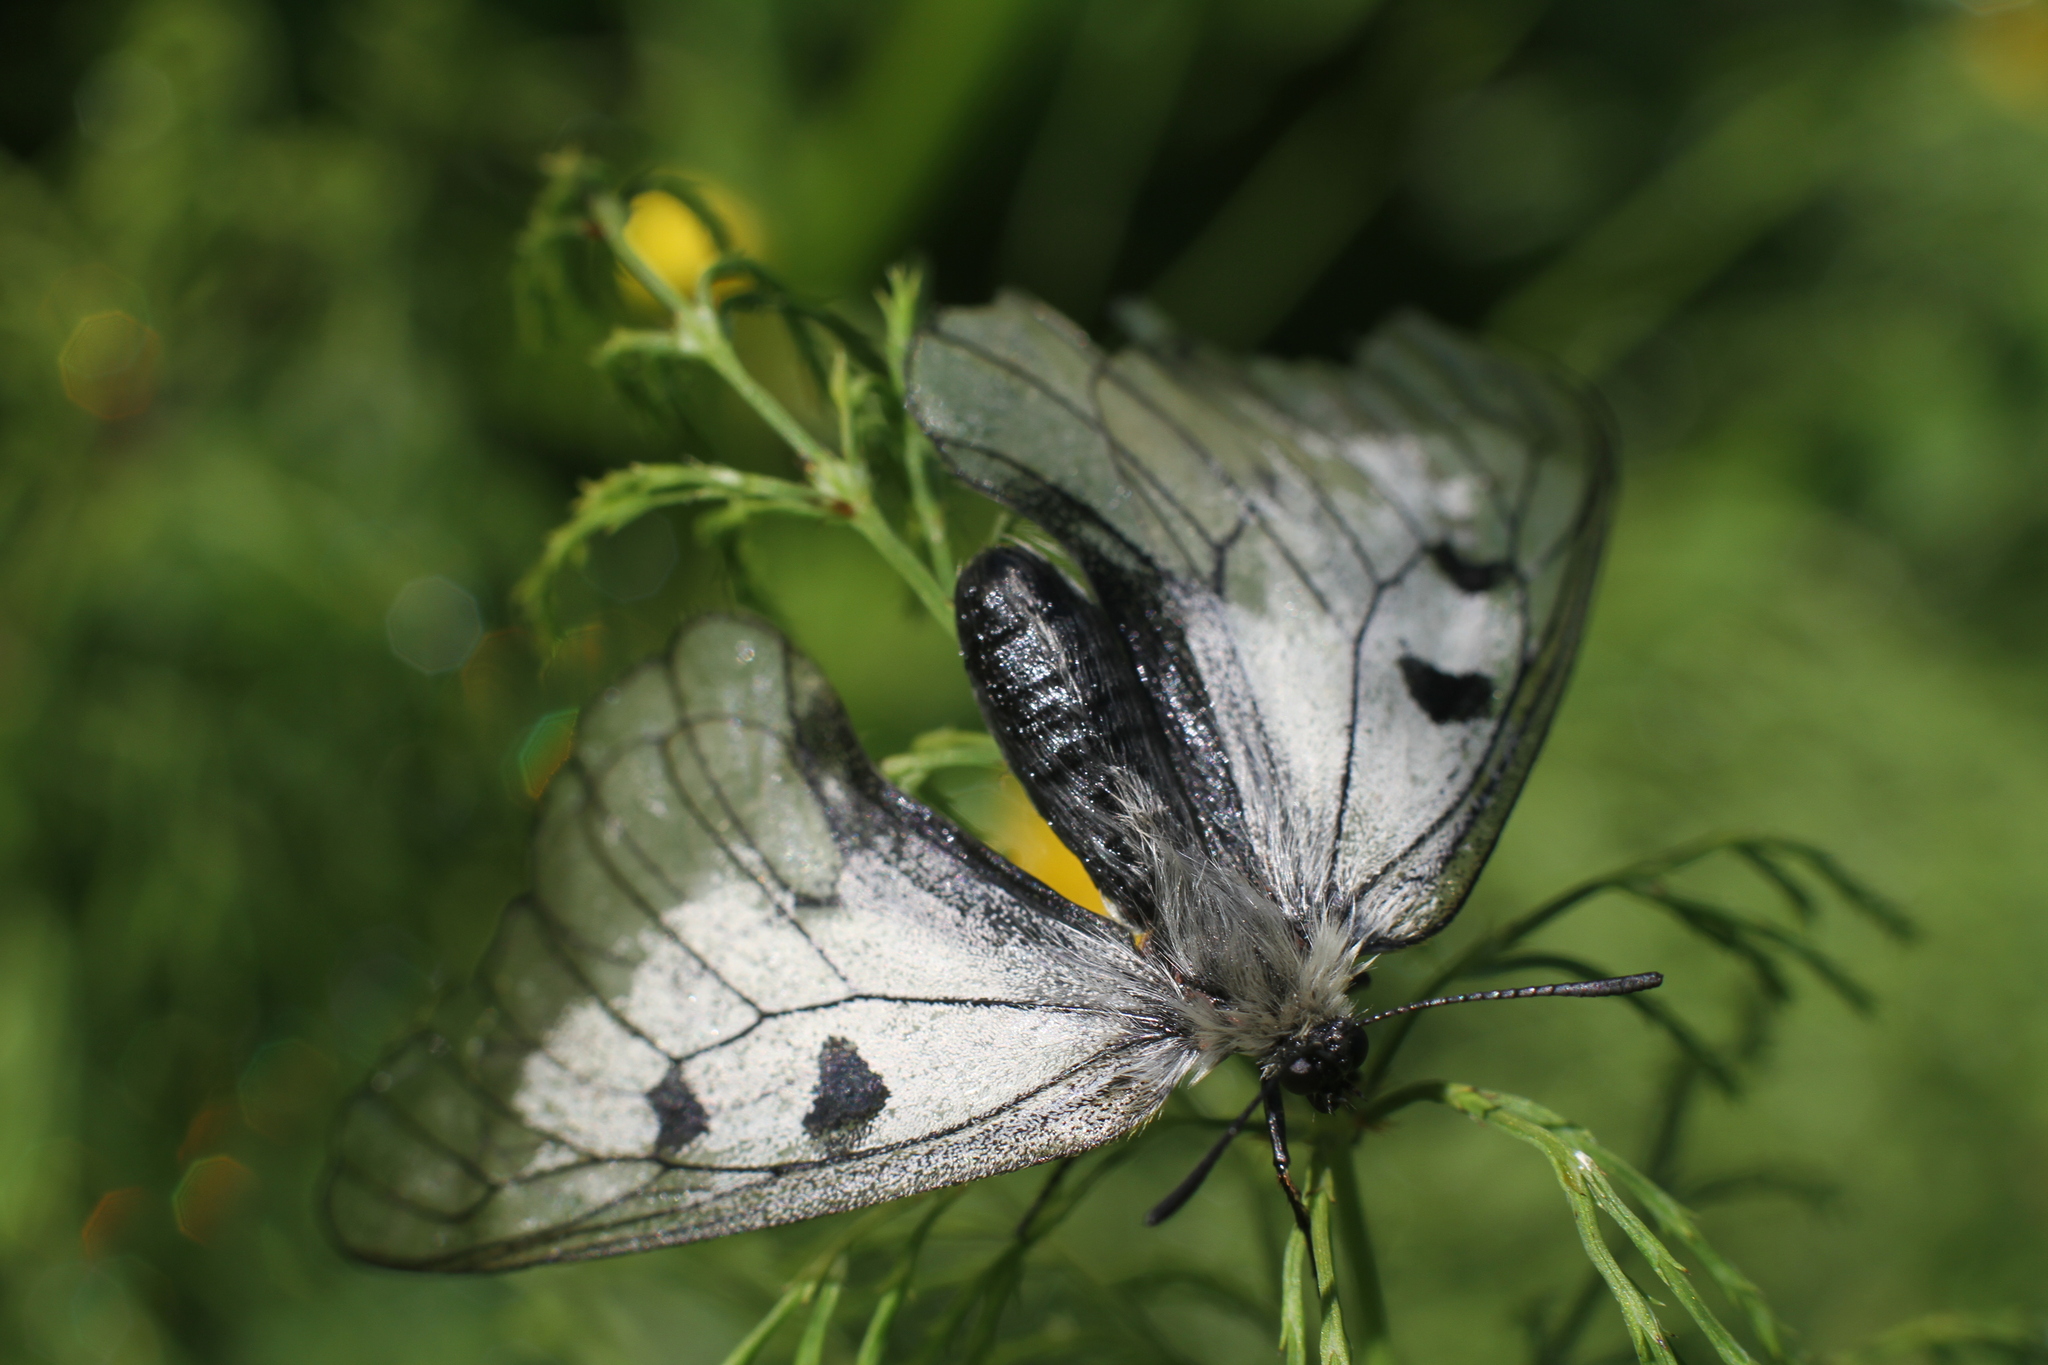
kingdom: Animalia
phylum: Arthropoda
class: Insecta
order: Lepidoptera
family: Papilionidae
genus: Parnassius
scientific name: Parnassius mnemosyne
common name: Clouded apollo
